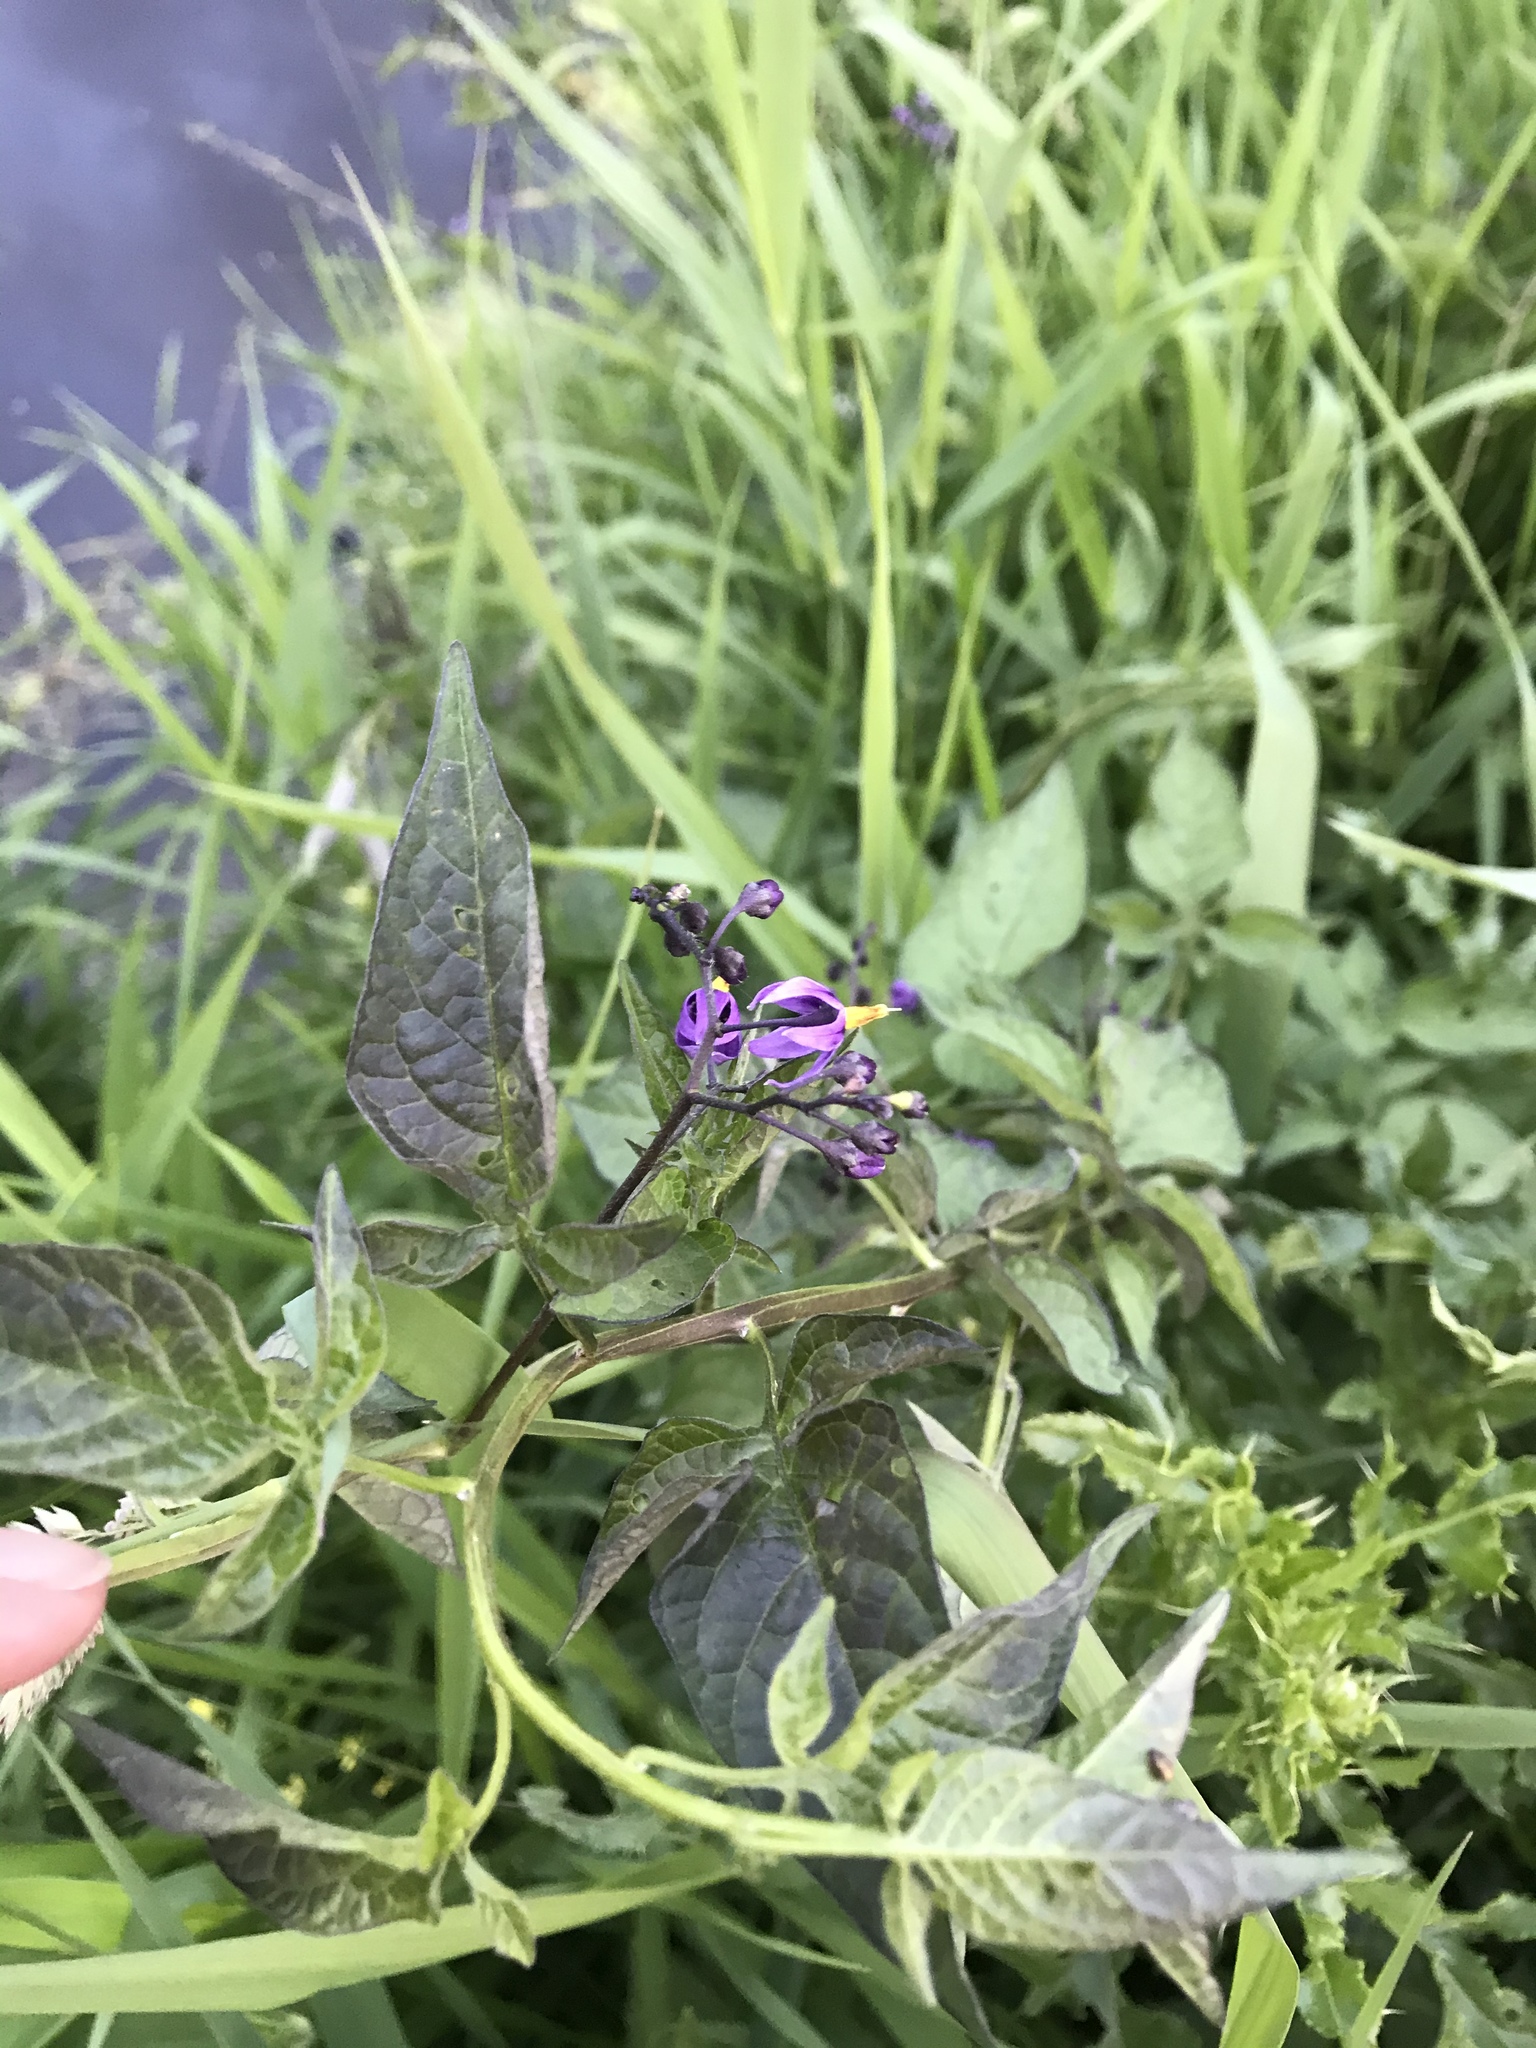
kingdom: Plantae
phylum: Tracheophyta
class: Magnoliopsida
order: Solanales
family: Solanaceae
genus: Solanum
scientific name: Solanum dulcamara
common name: Climbing nightshade
